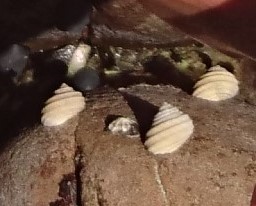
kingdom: Animalia
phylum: Mollusca
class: Gastropoda
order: Trochida
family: Trochidae
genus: Austrocochlea
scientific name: Austrocochlea constricta
